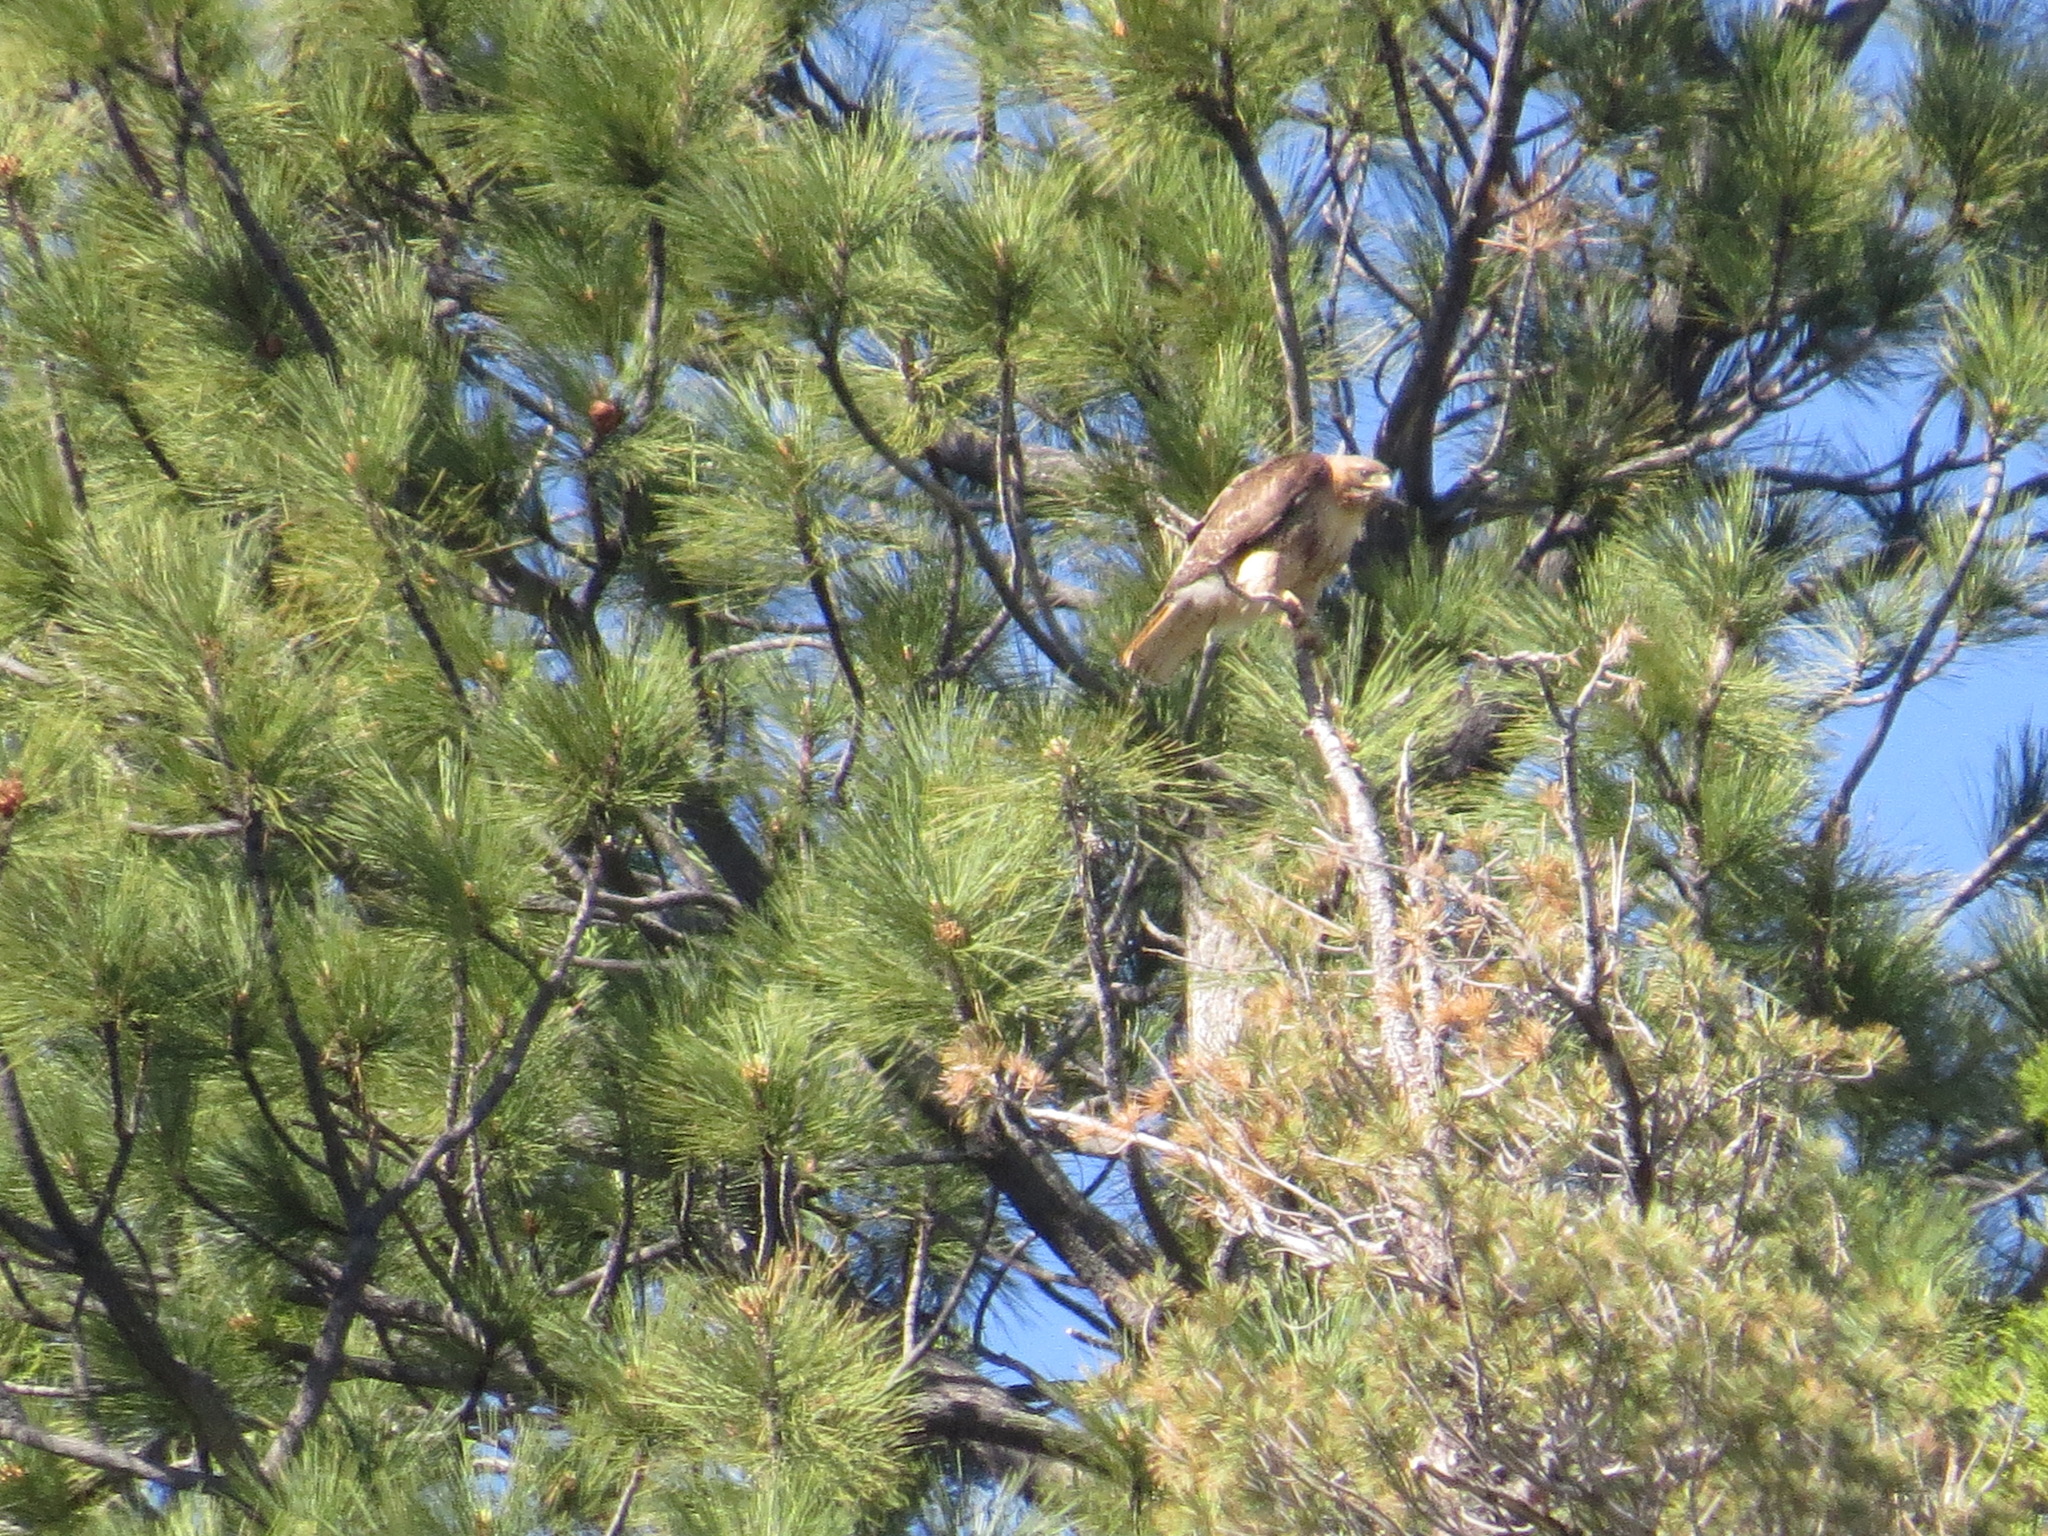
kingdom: Animalia
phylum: Chordata
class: Aves
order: Accipitriformes
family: Accipitridae
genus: Buteo
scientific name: Buteo jamaicensis
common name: Red-tailed hawk
